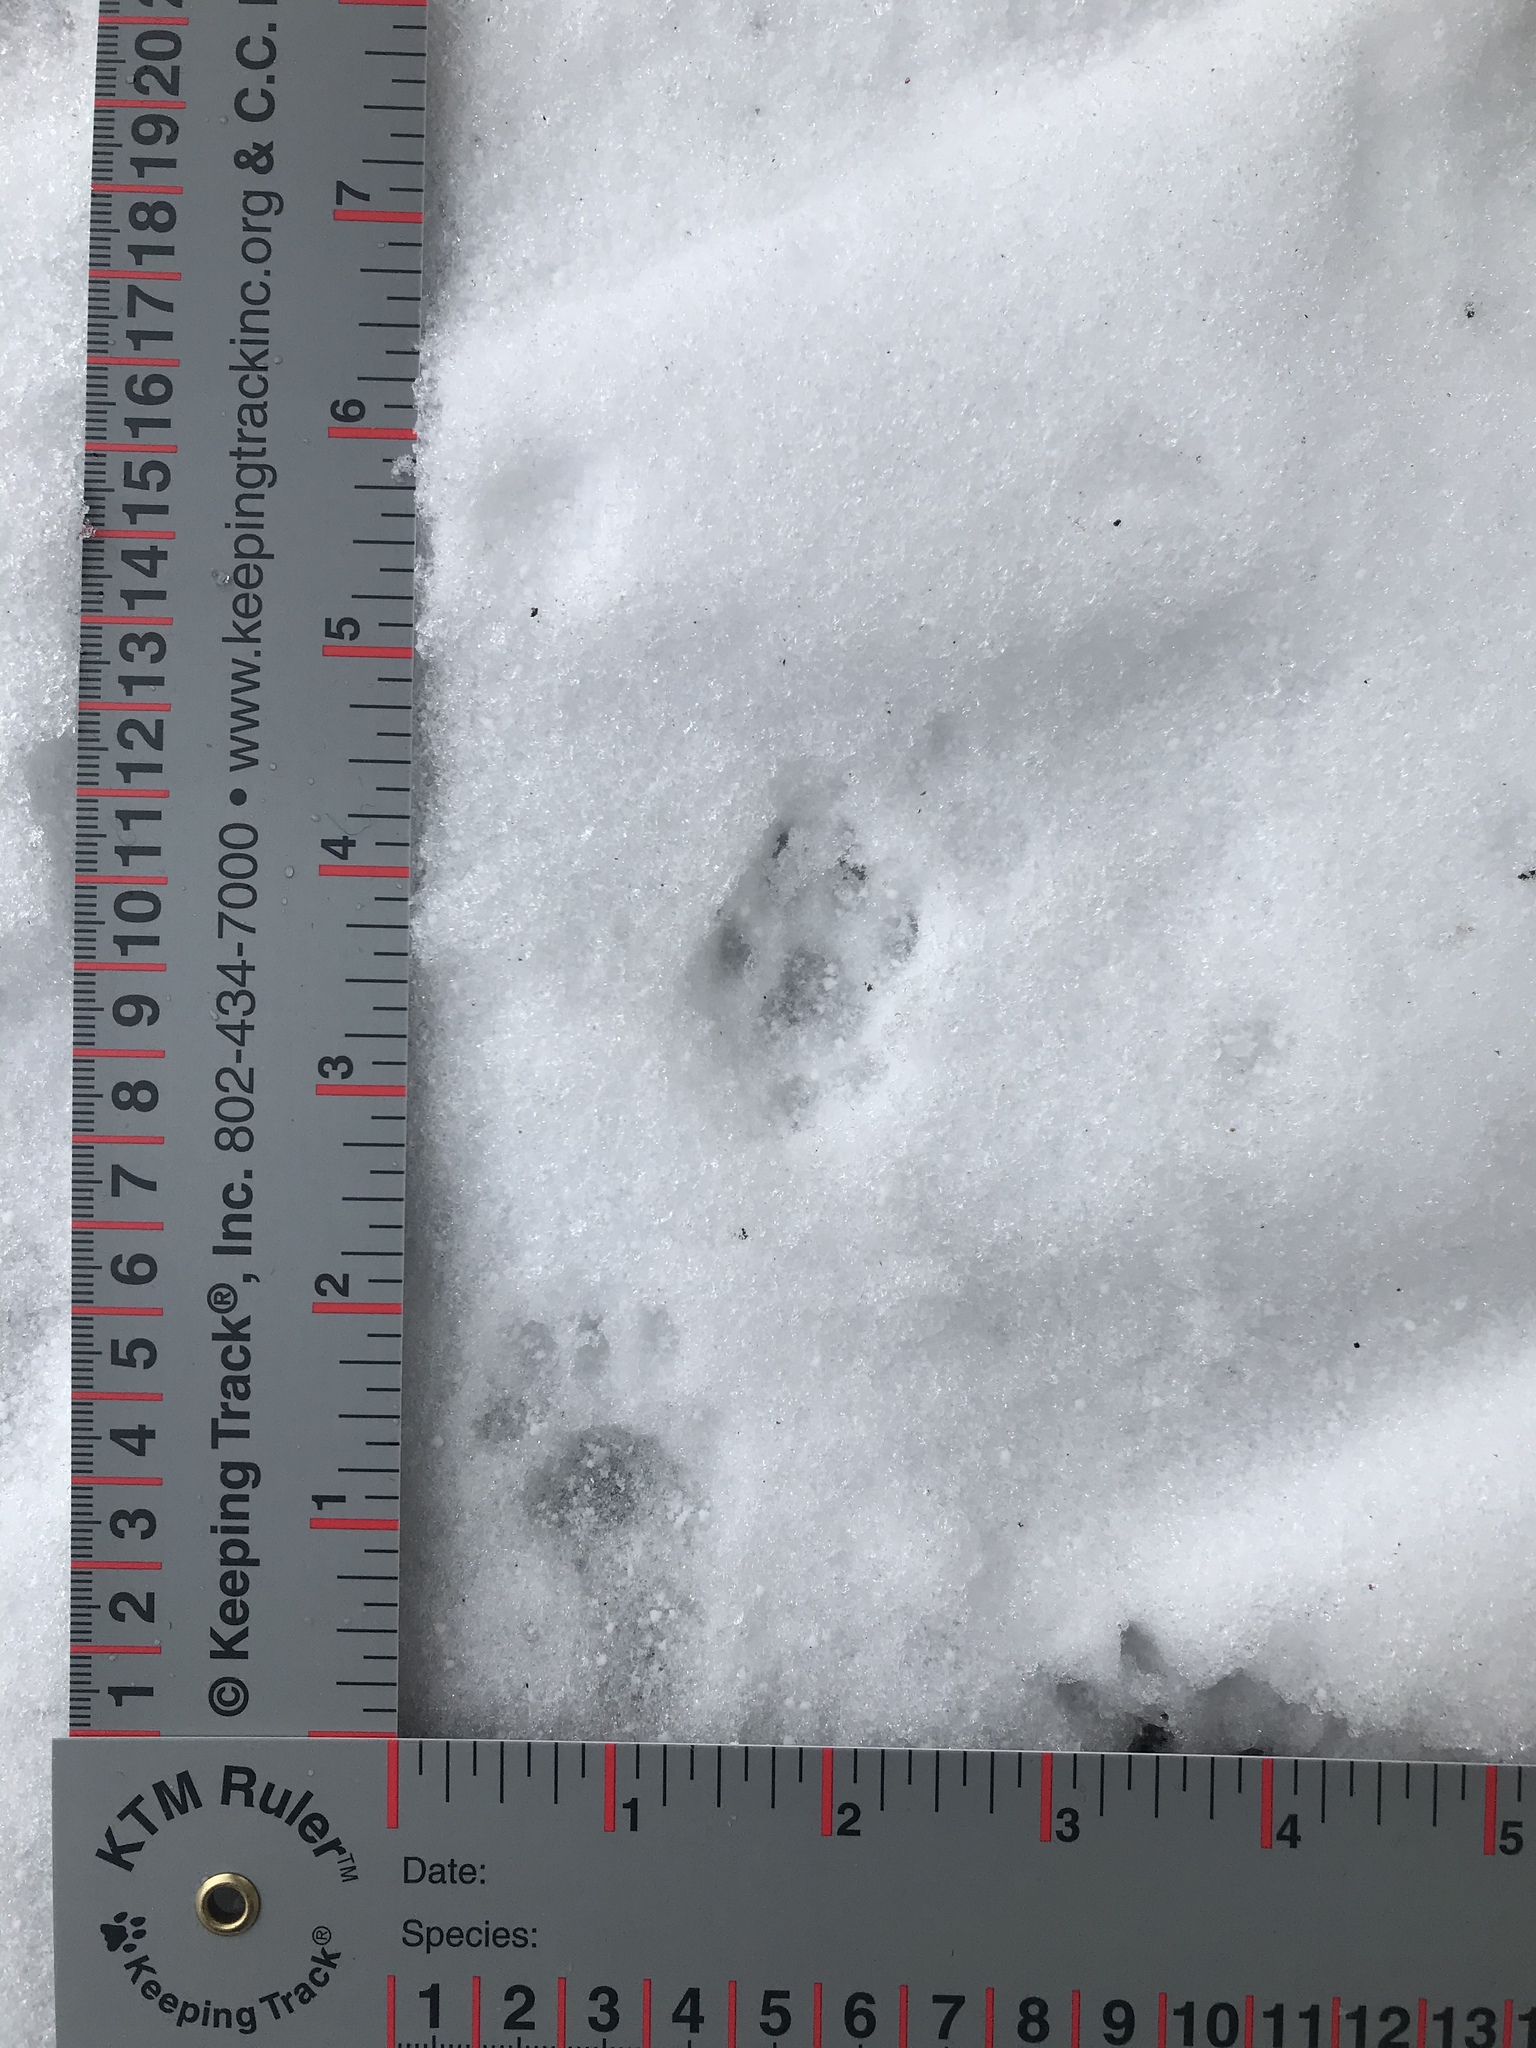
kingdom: Animalia
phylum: Chordata
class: Mammalia
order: Rodentia
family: Sciuridae
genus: Sciurus
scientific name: Sciurus carolinensis
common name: Eastern gray squirrel
